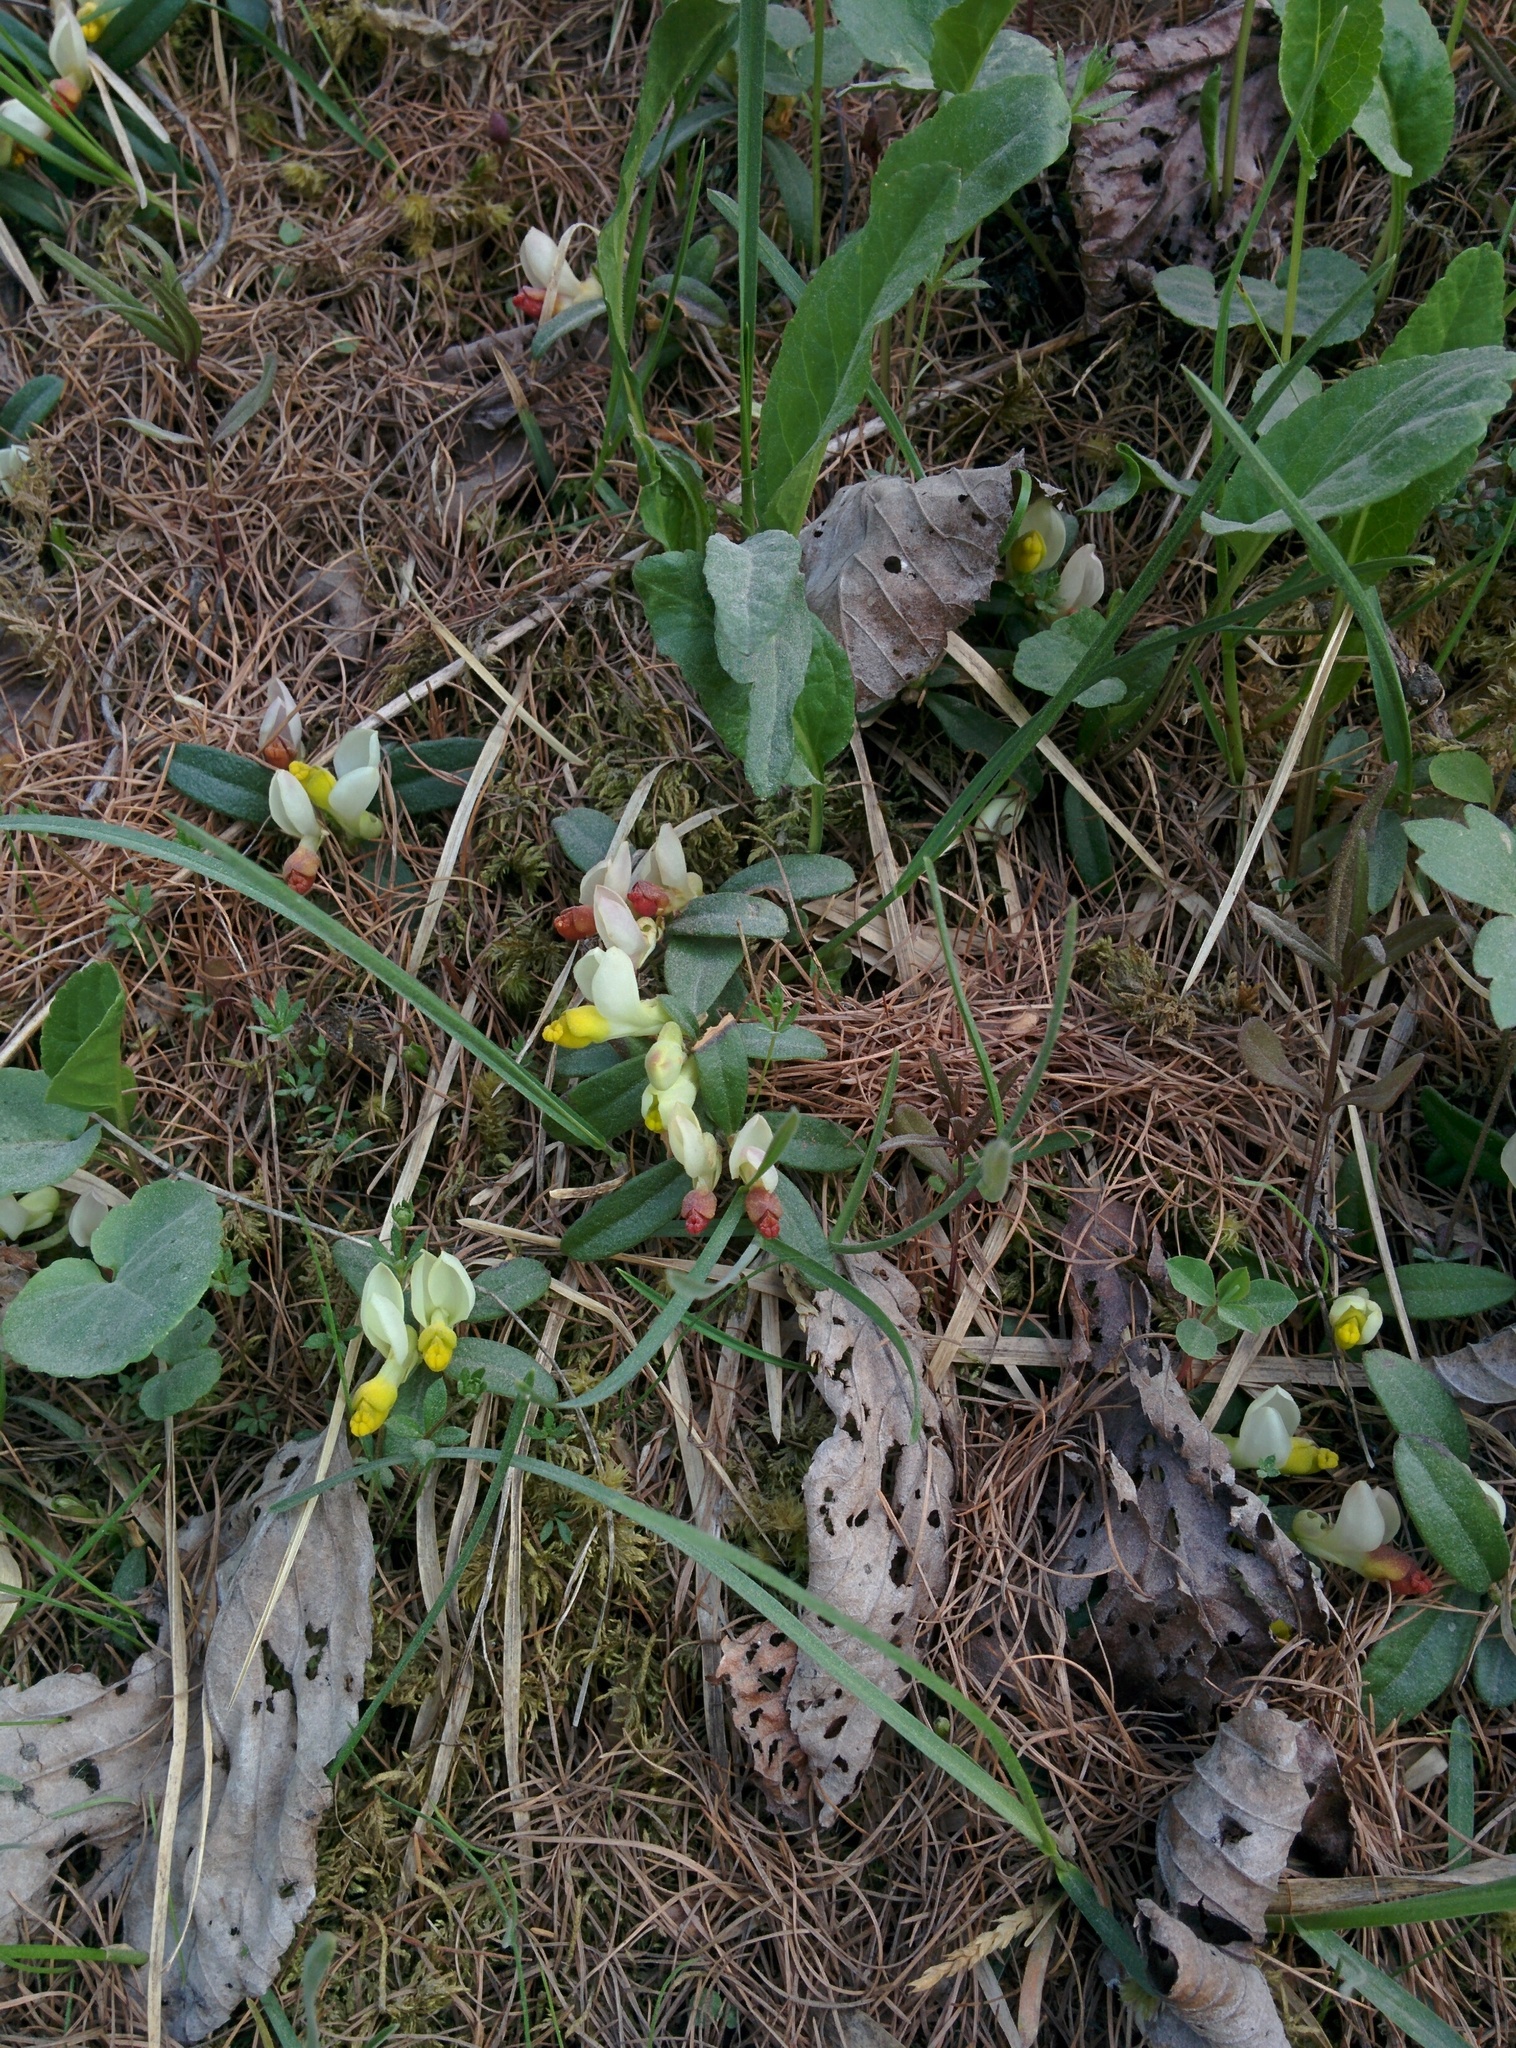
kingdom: Plantae
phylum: Tracheophyta
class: Magnoliopsida
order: Fabales
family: Polygalaceae
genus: Polygaloides
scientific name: Polygaloides chamaebuxus
